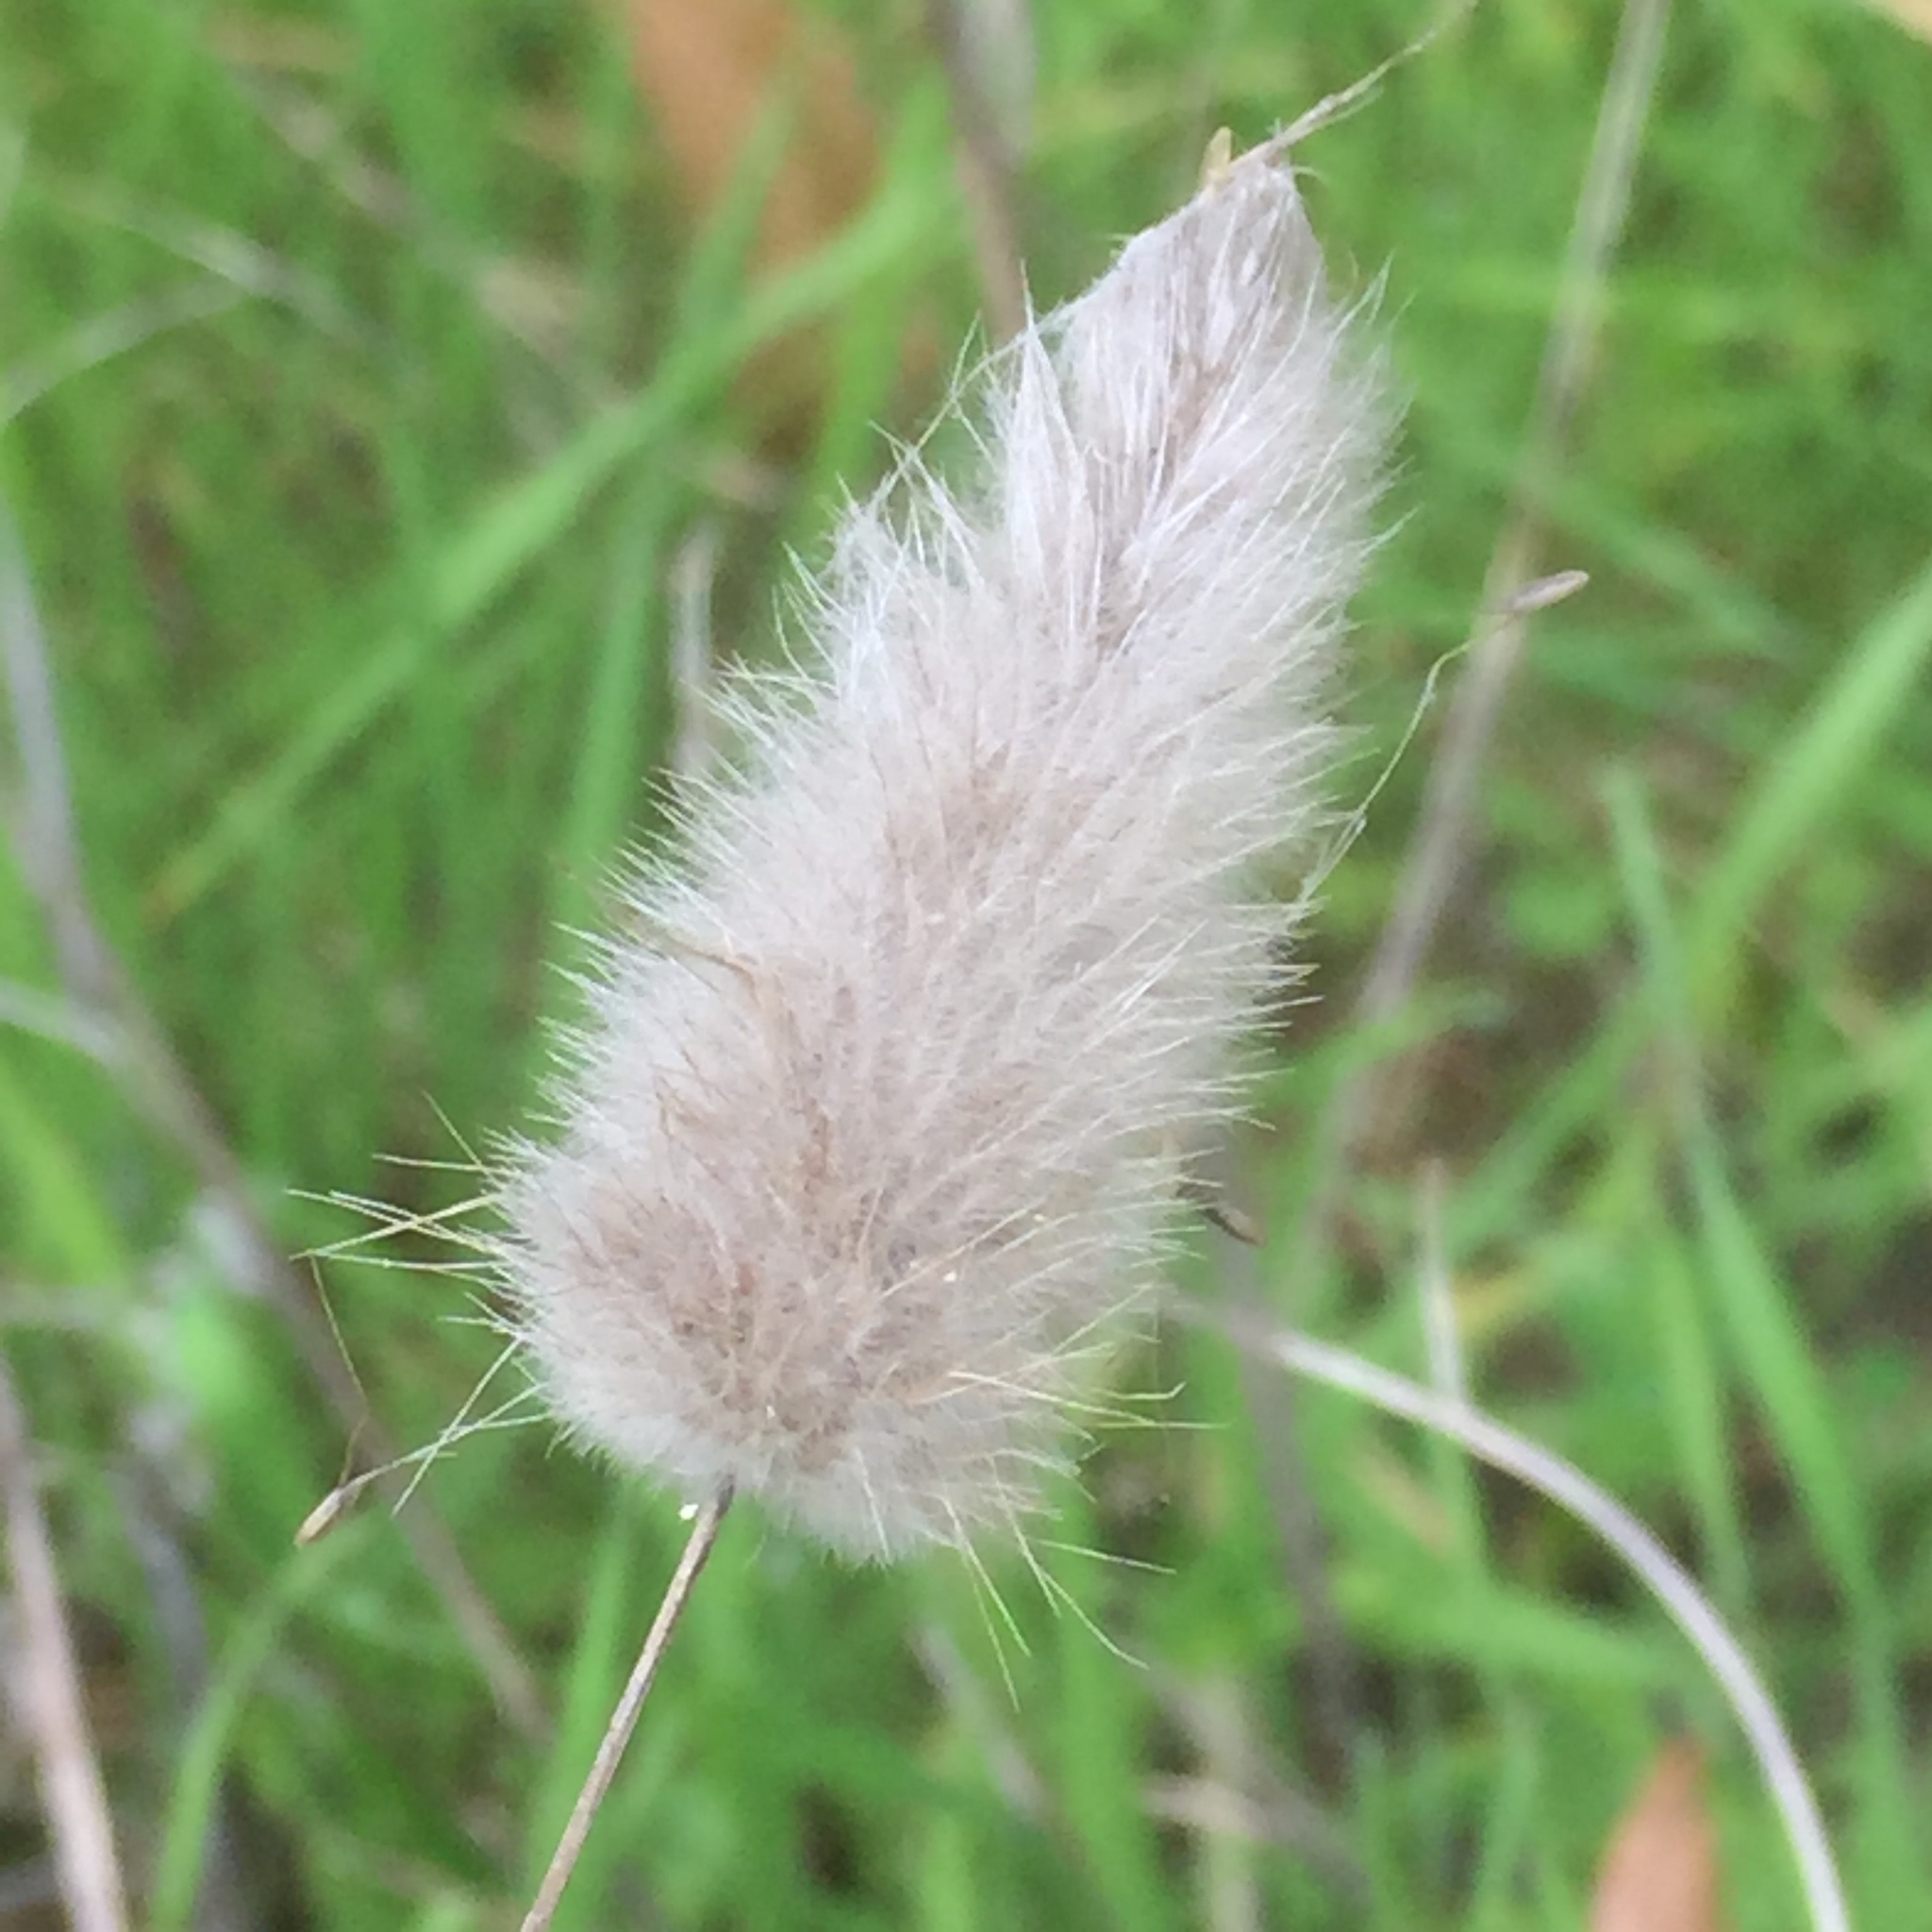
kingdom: Plantae
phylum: Tracheophyta
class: Liliopsida
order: Poales
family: Poaceae
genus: Lagurus
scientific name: Lagurus ovatus
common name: Hare's-tail
